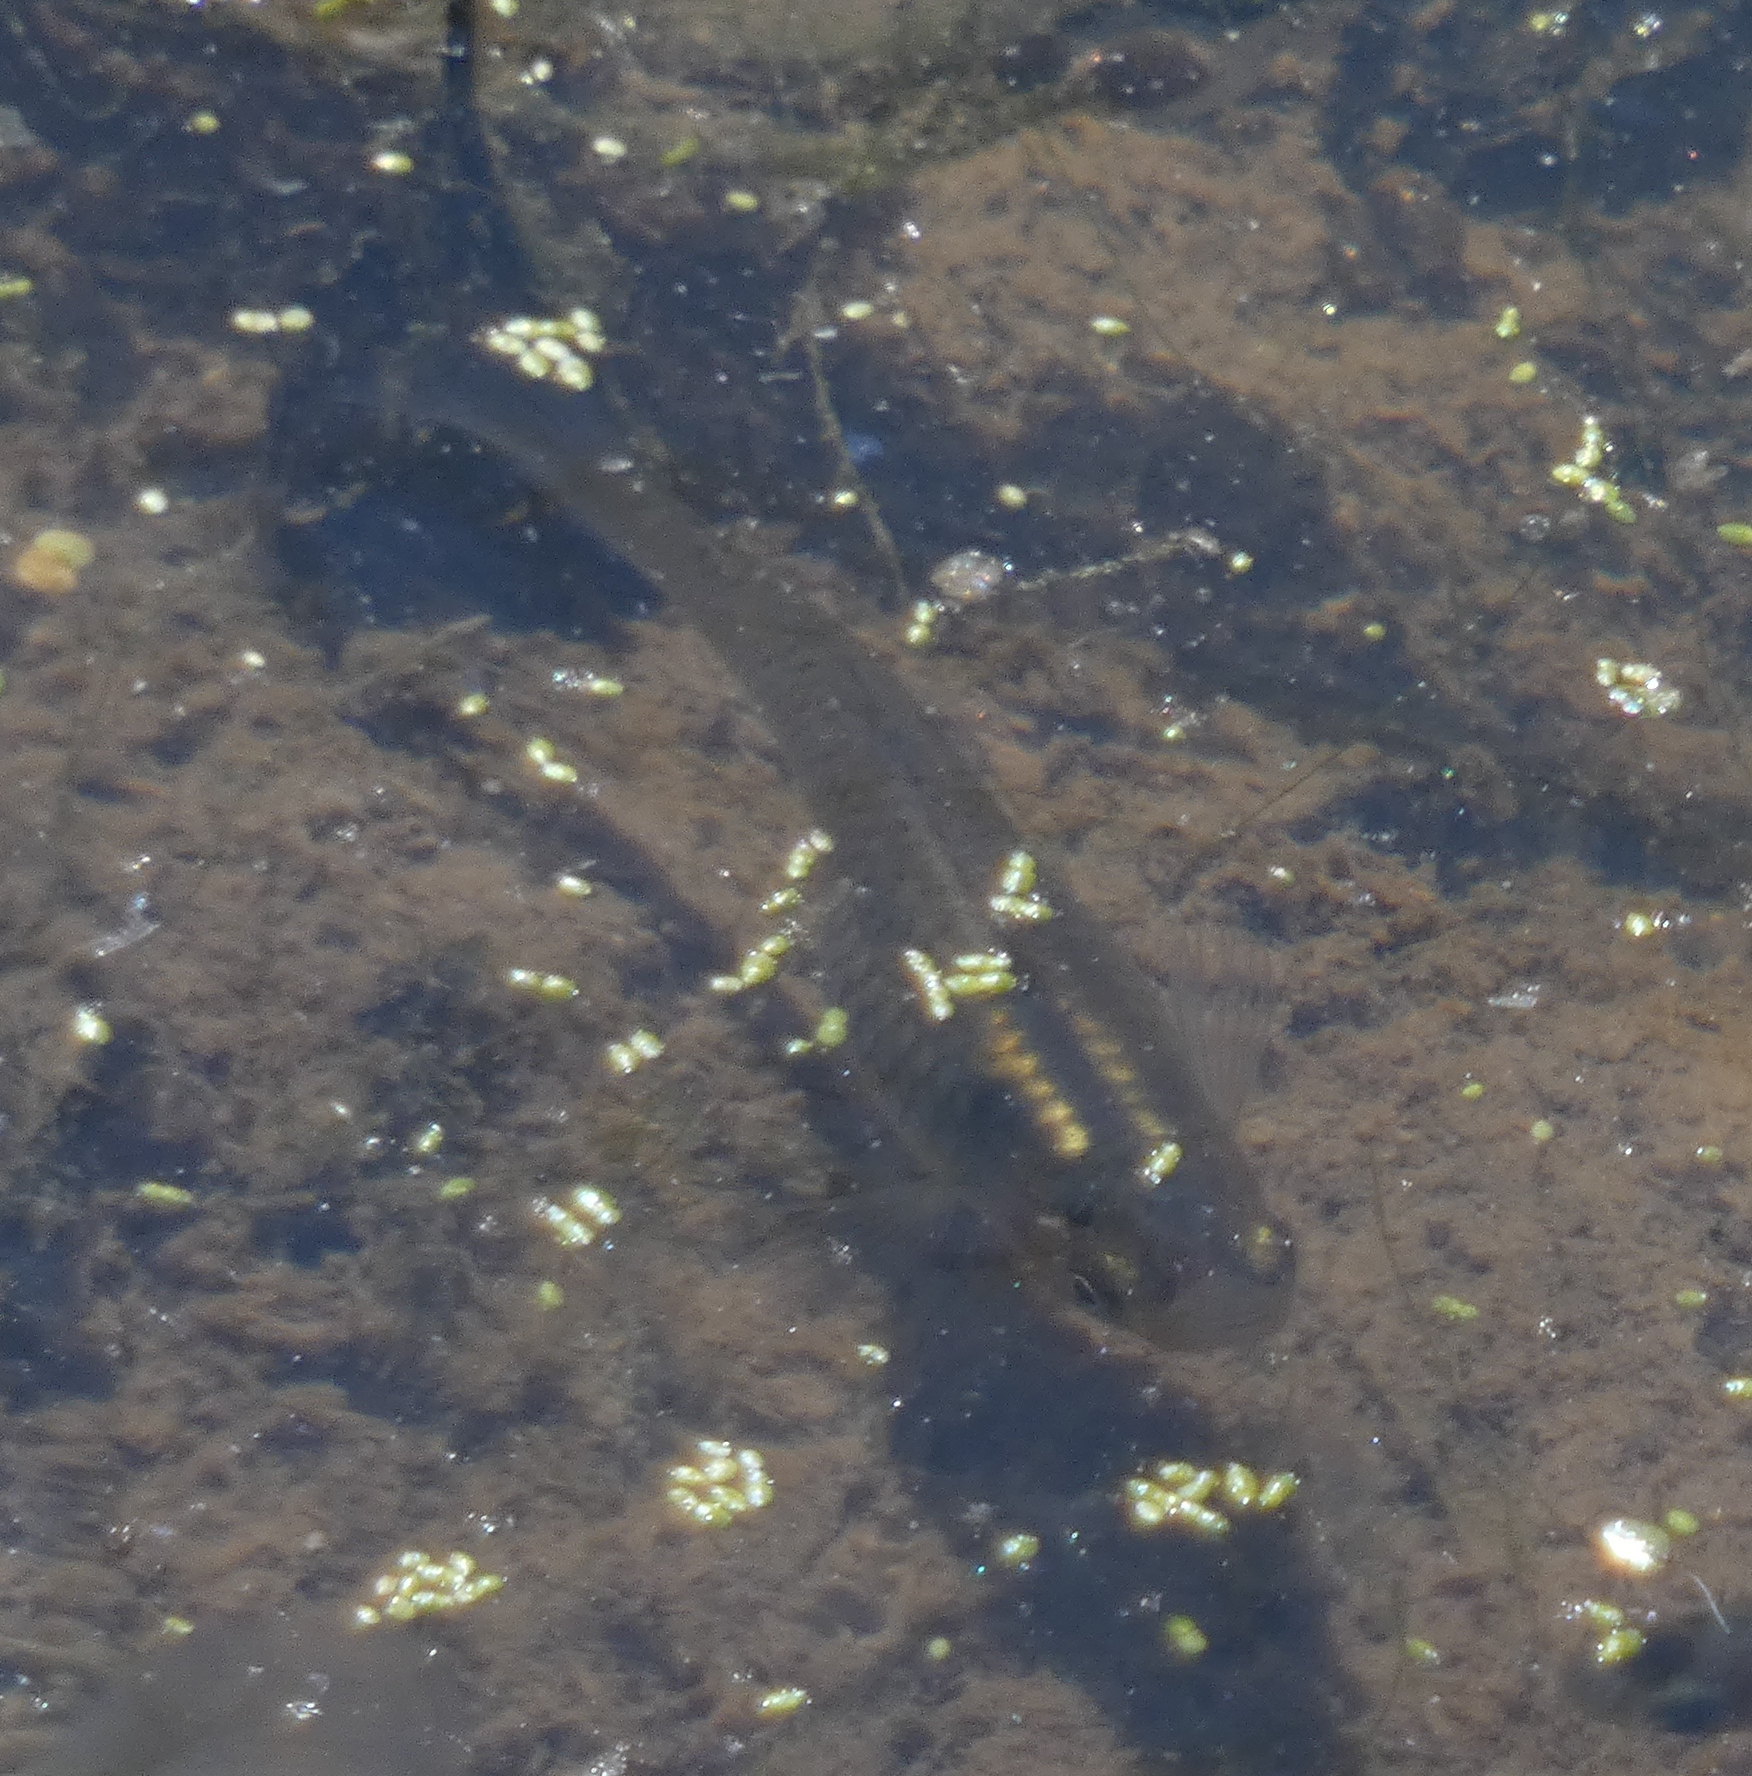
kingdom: Animalia
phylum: Chordata
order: Cyprinodontiformes
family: Poeciliidae
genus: Gambusia
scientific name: Gambusia
